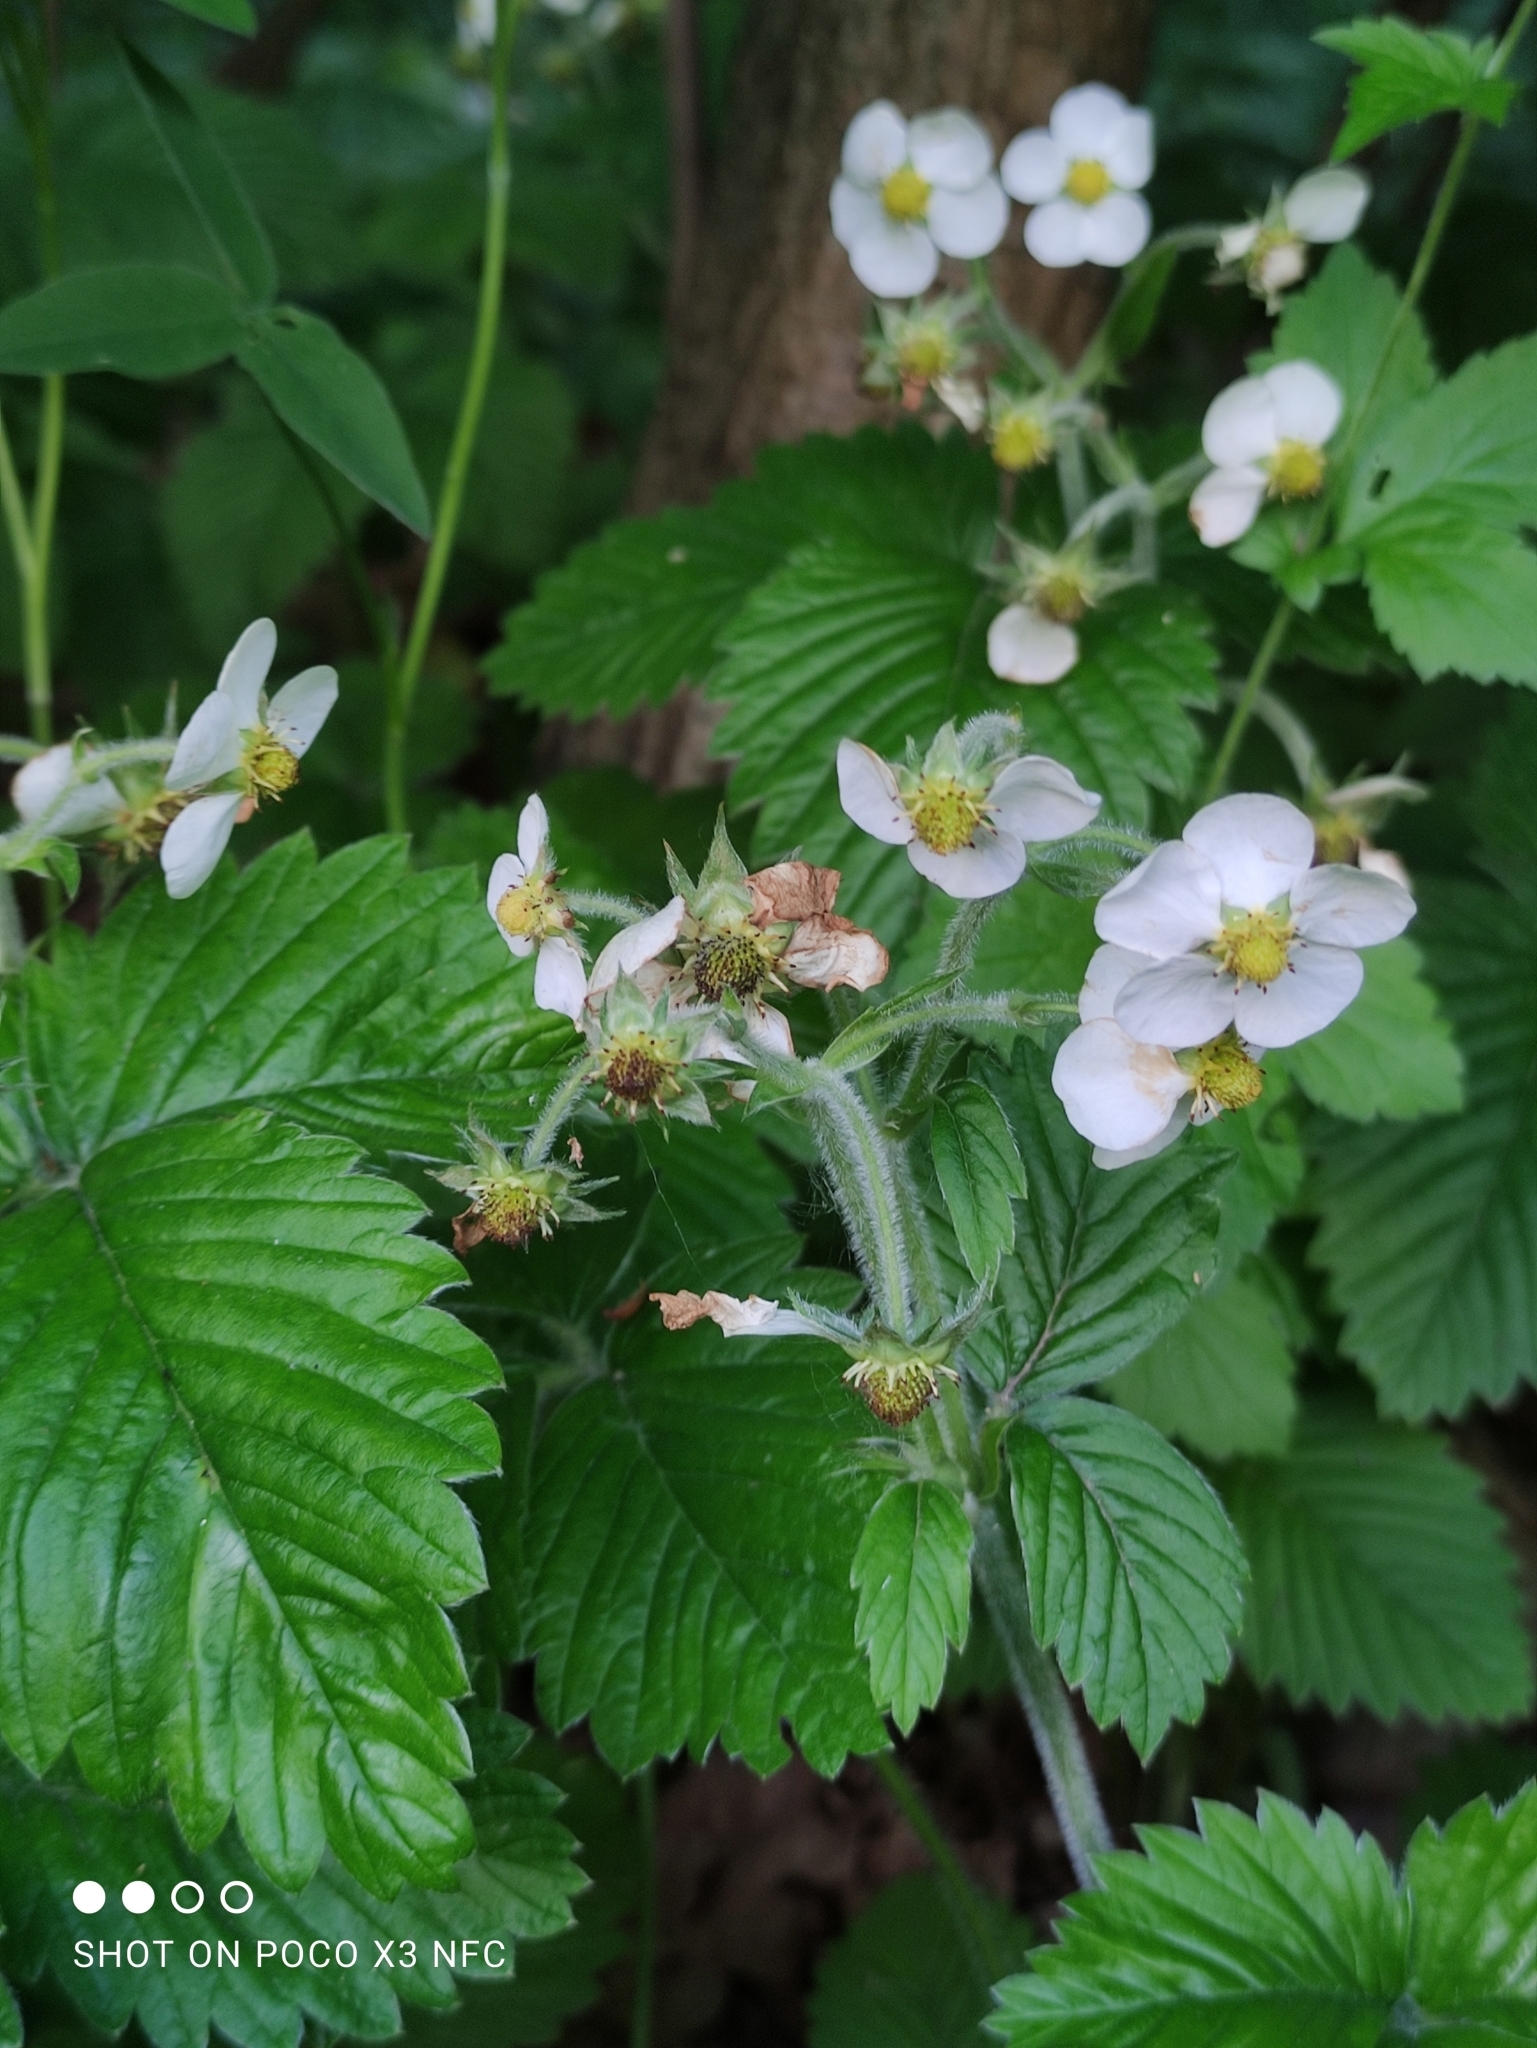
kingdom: Plantae
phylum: Tracheophyta
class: Magnoliopsida
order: Rosales
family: Rosaceae
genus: Fragaria
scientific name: Fragaria moschata
